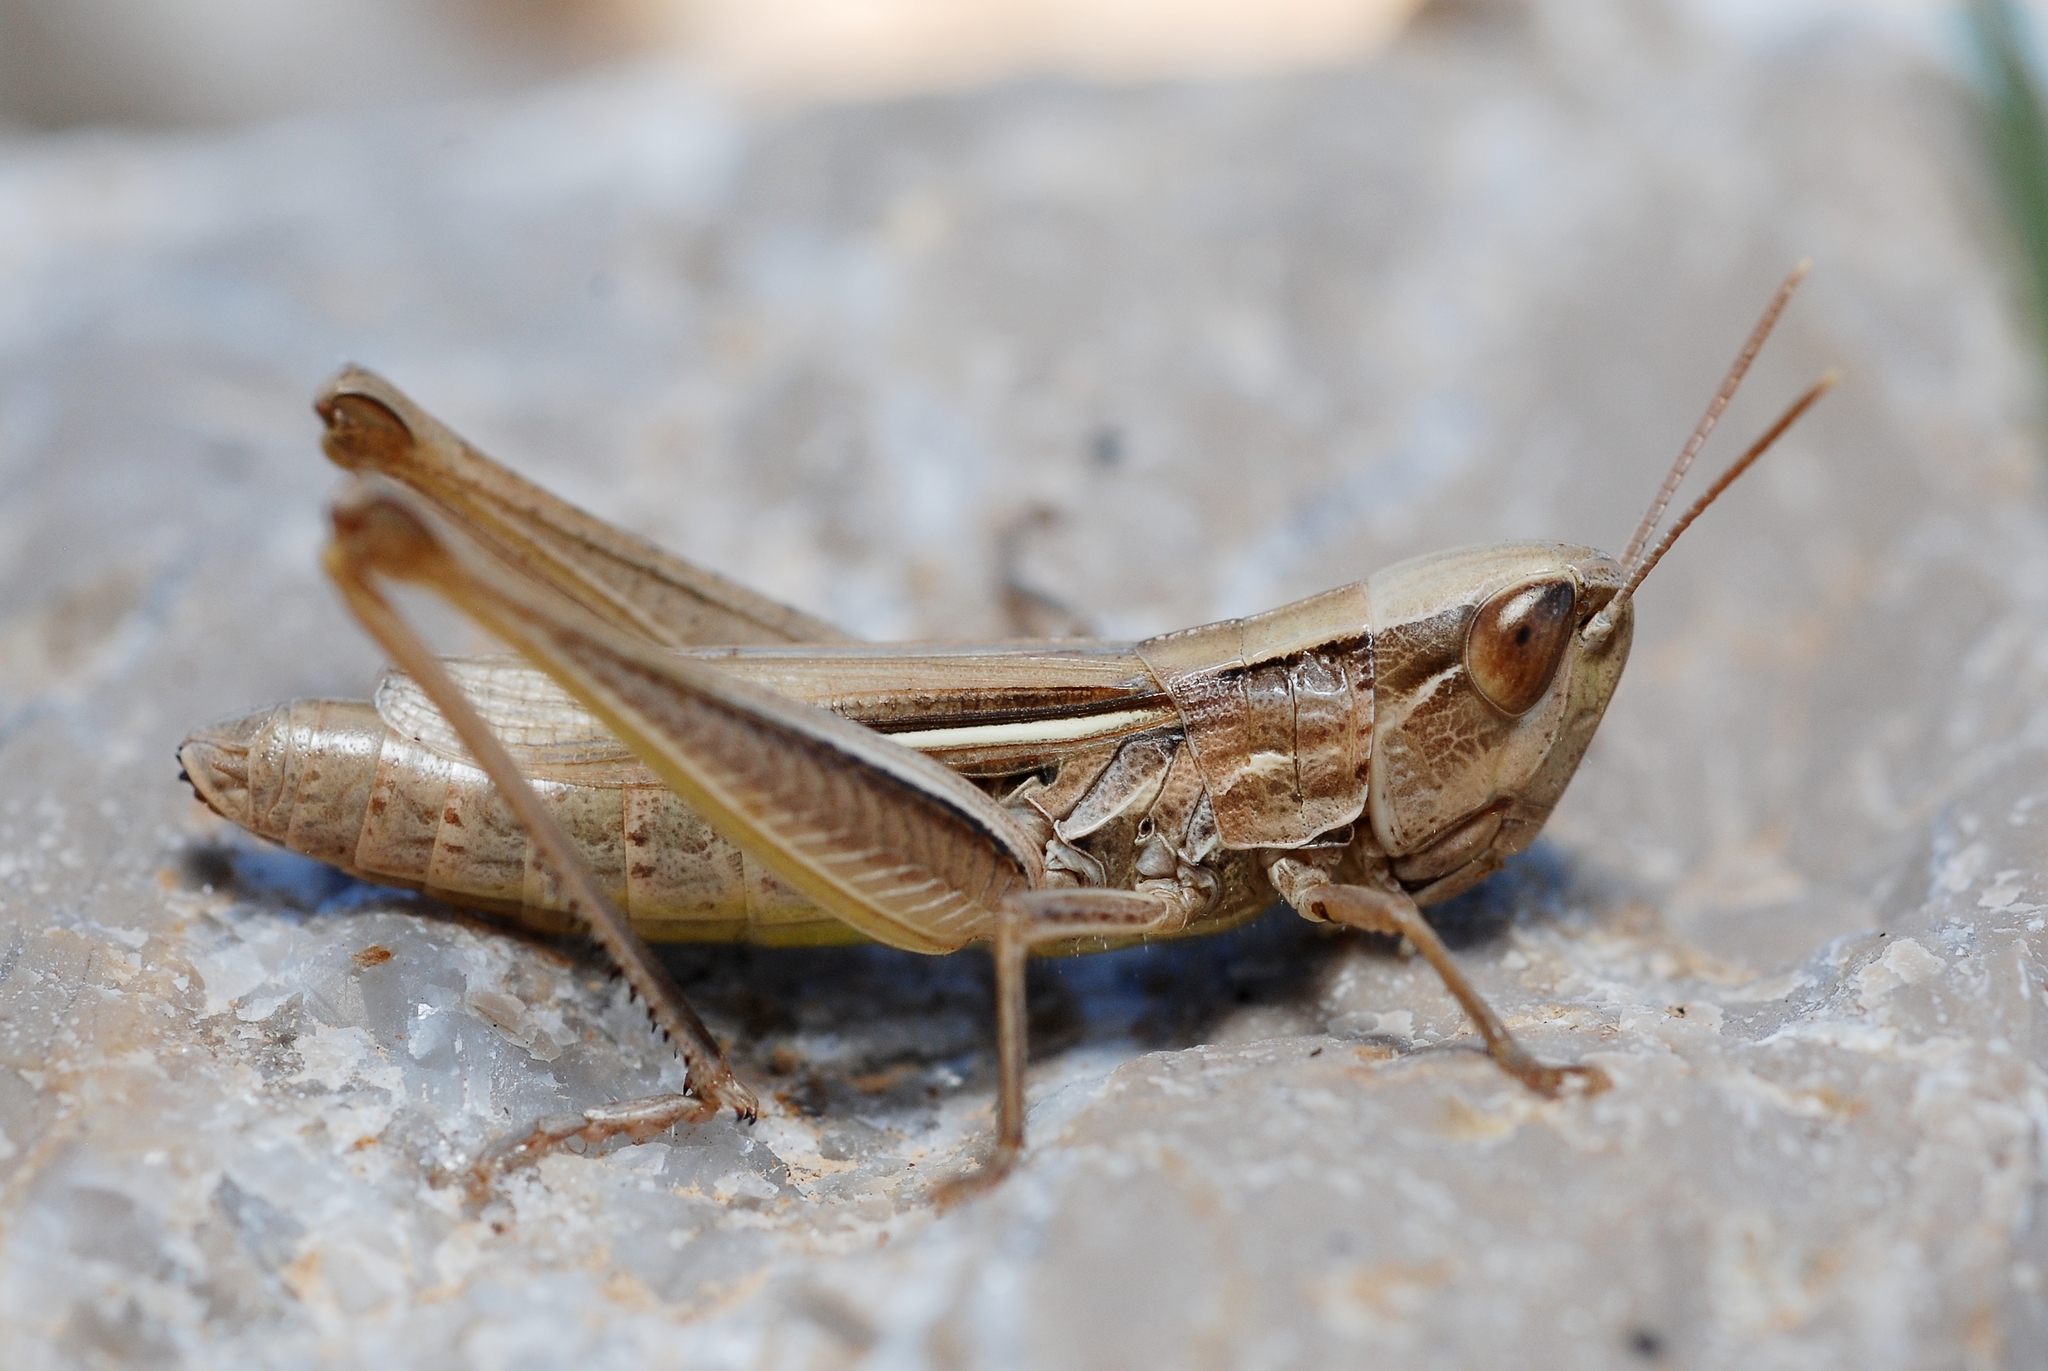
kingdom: Animalia
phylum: Arthropoda
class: Insecta
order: Orthoptera
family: Acrididae
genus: Euchorthippus
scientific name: Euchorthippus elegantulus
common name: Elegant straw grasshopper
